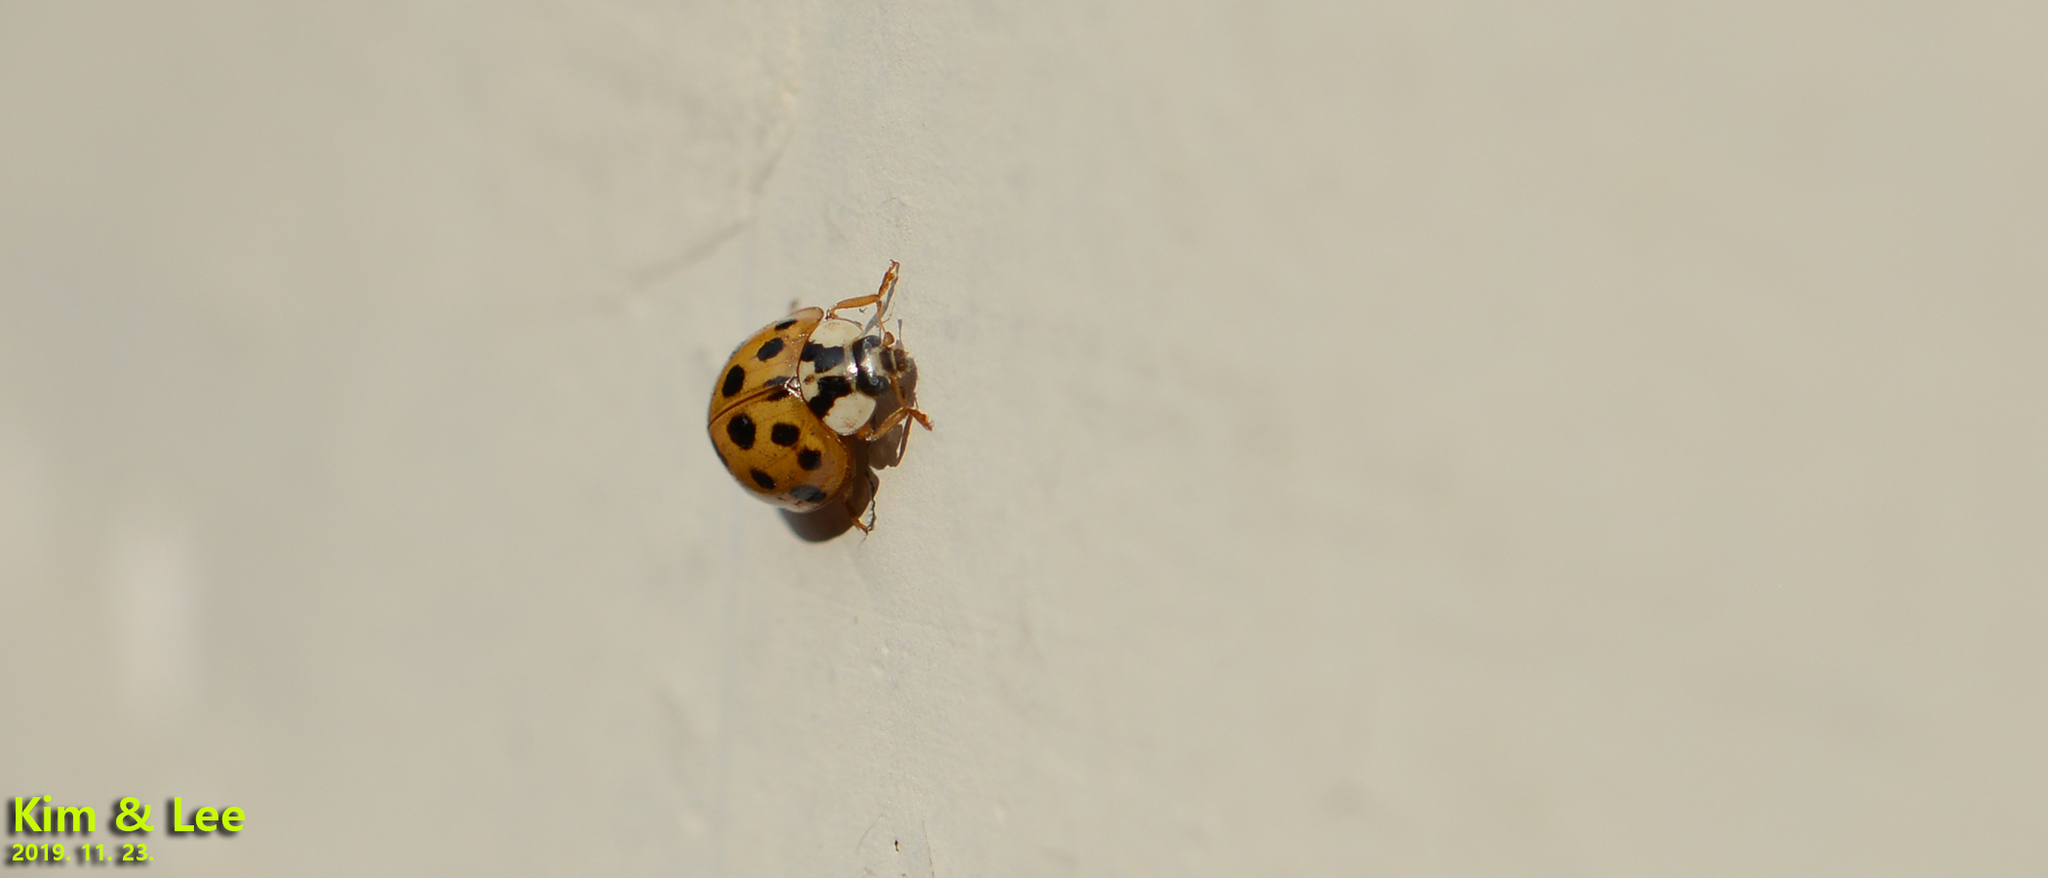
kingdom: Animalia
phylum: Arthropoda
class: Insecta
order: Coleoptera
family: Coccinellidae
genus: Harmonia
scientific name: Harmonia axyridis
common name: Harlequin ladybird
